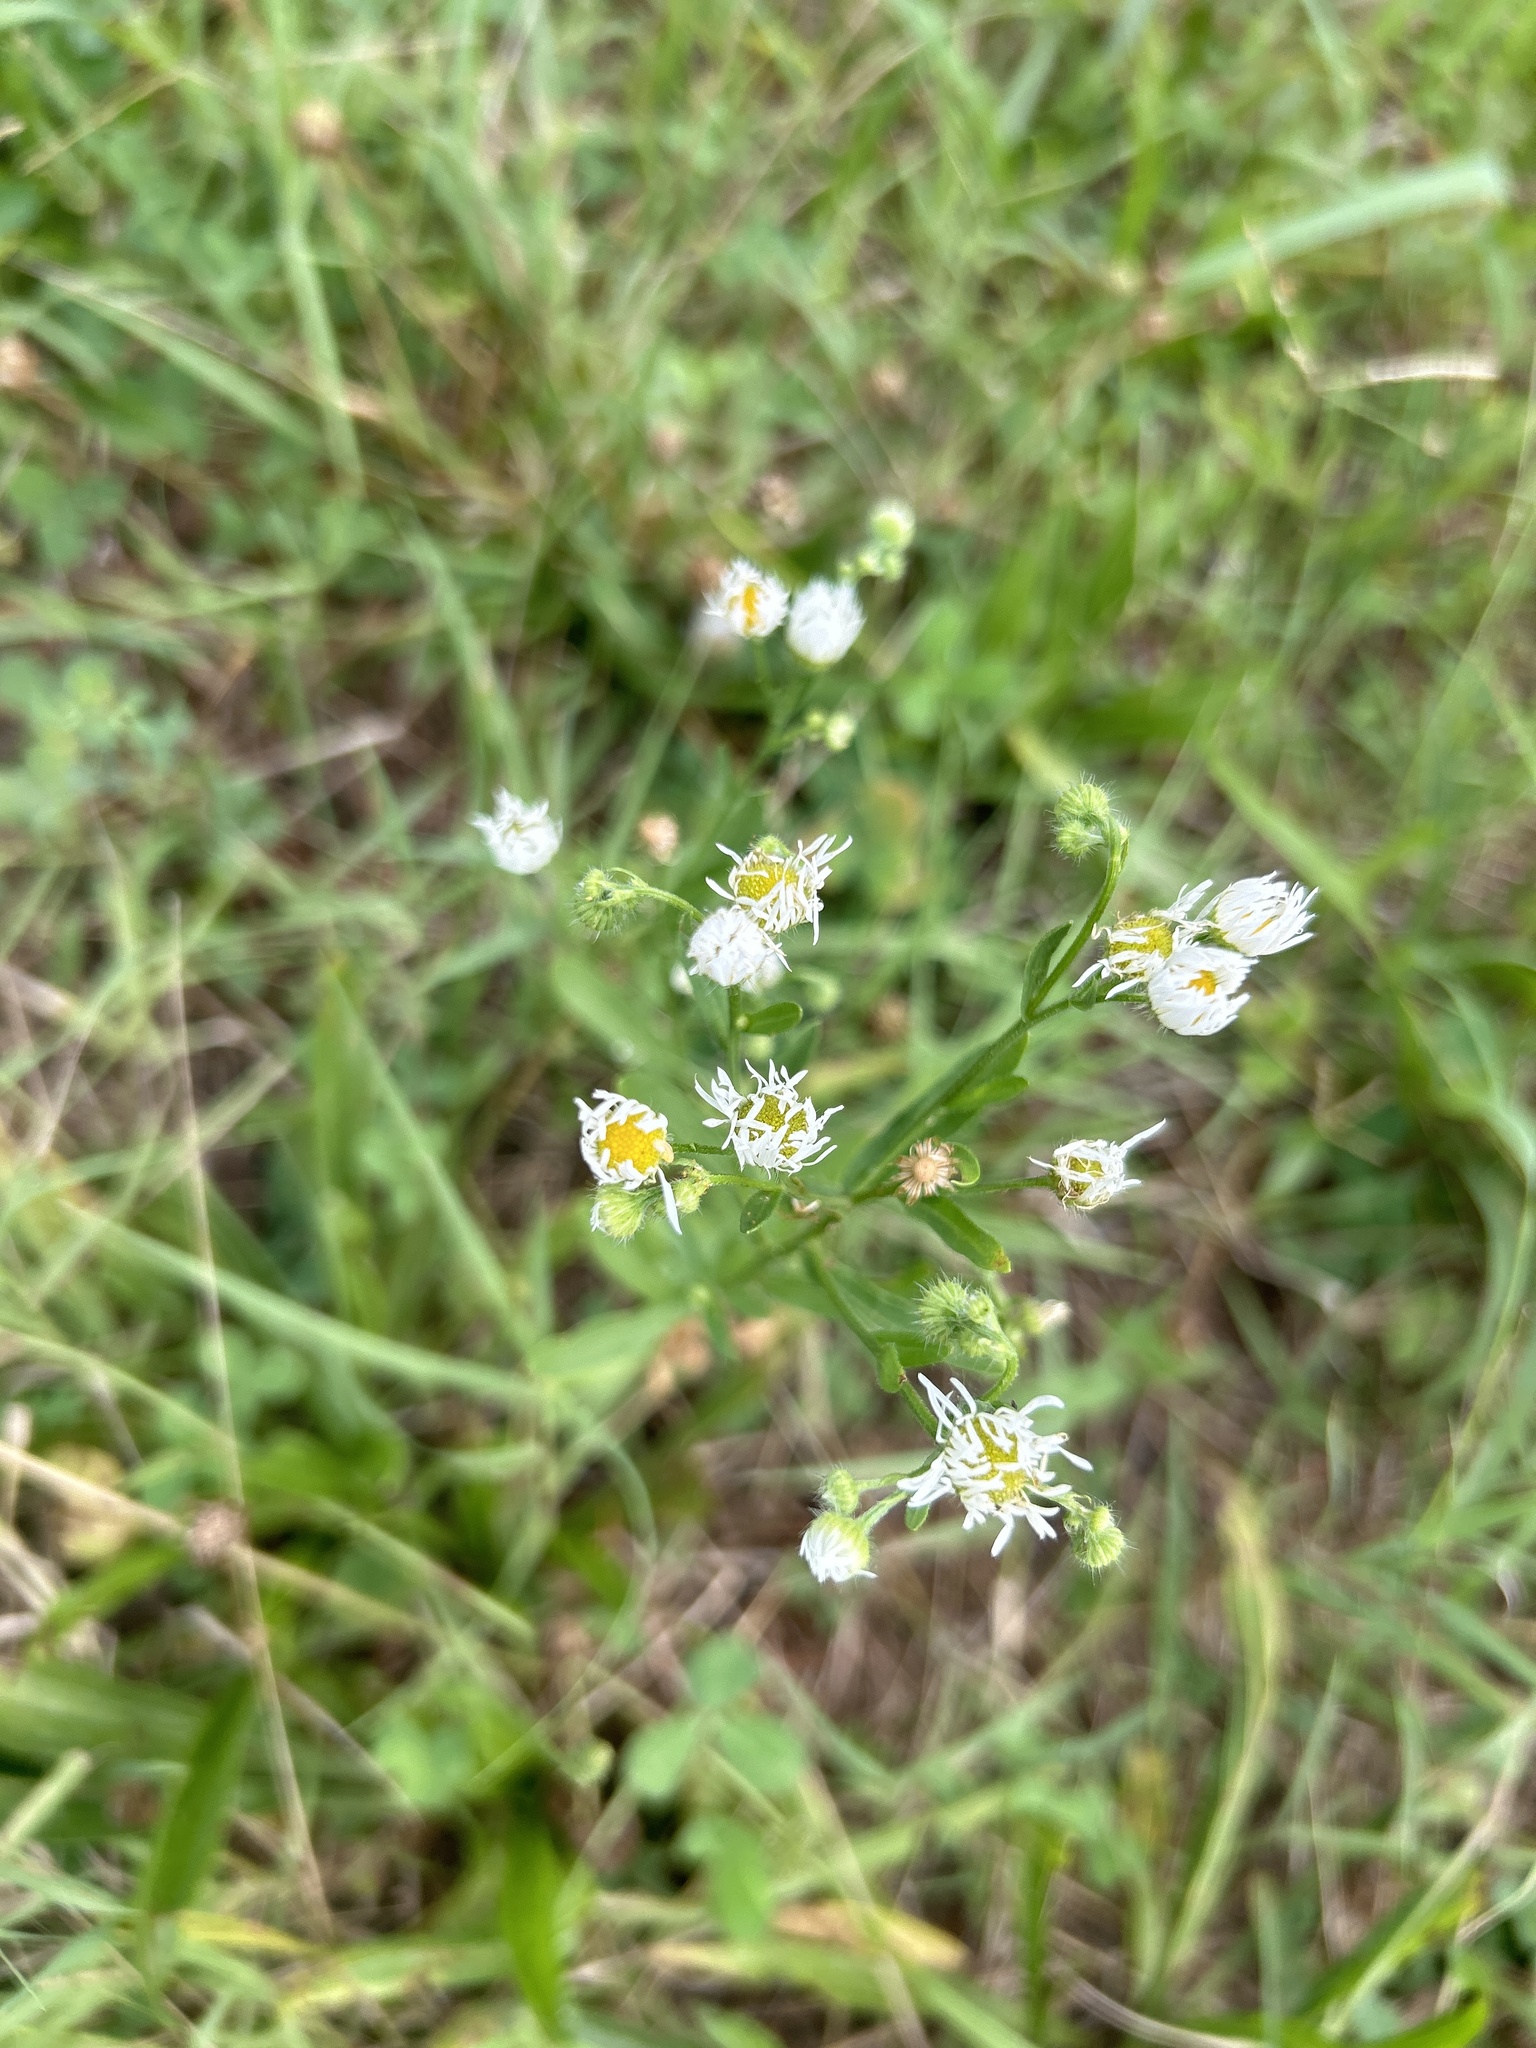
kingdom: Plantae
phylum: Tracheophyta
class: Magnoliopsida
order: Asterales
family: Asteraceae
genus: Erigeron
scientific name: Erigeron strigosus
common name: Common eastern fleabane
